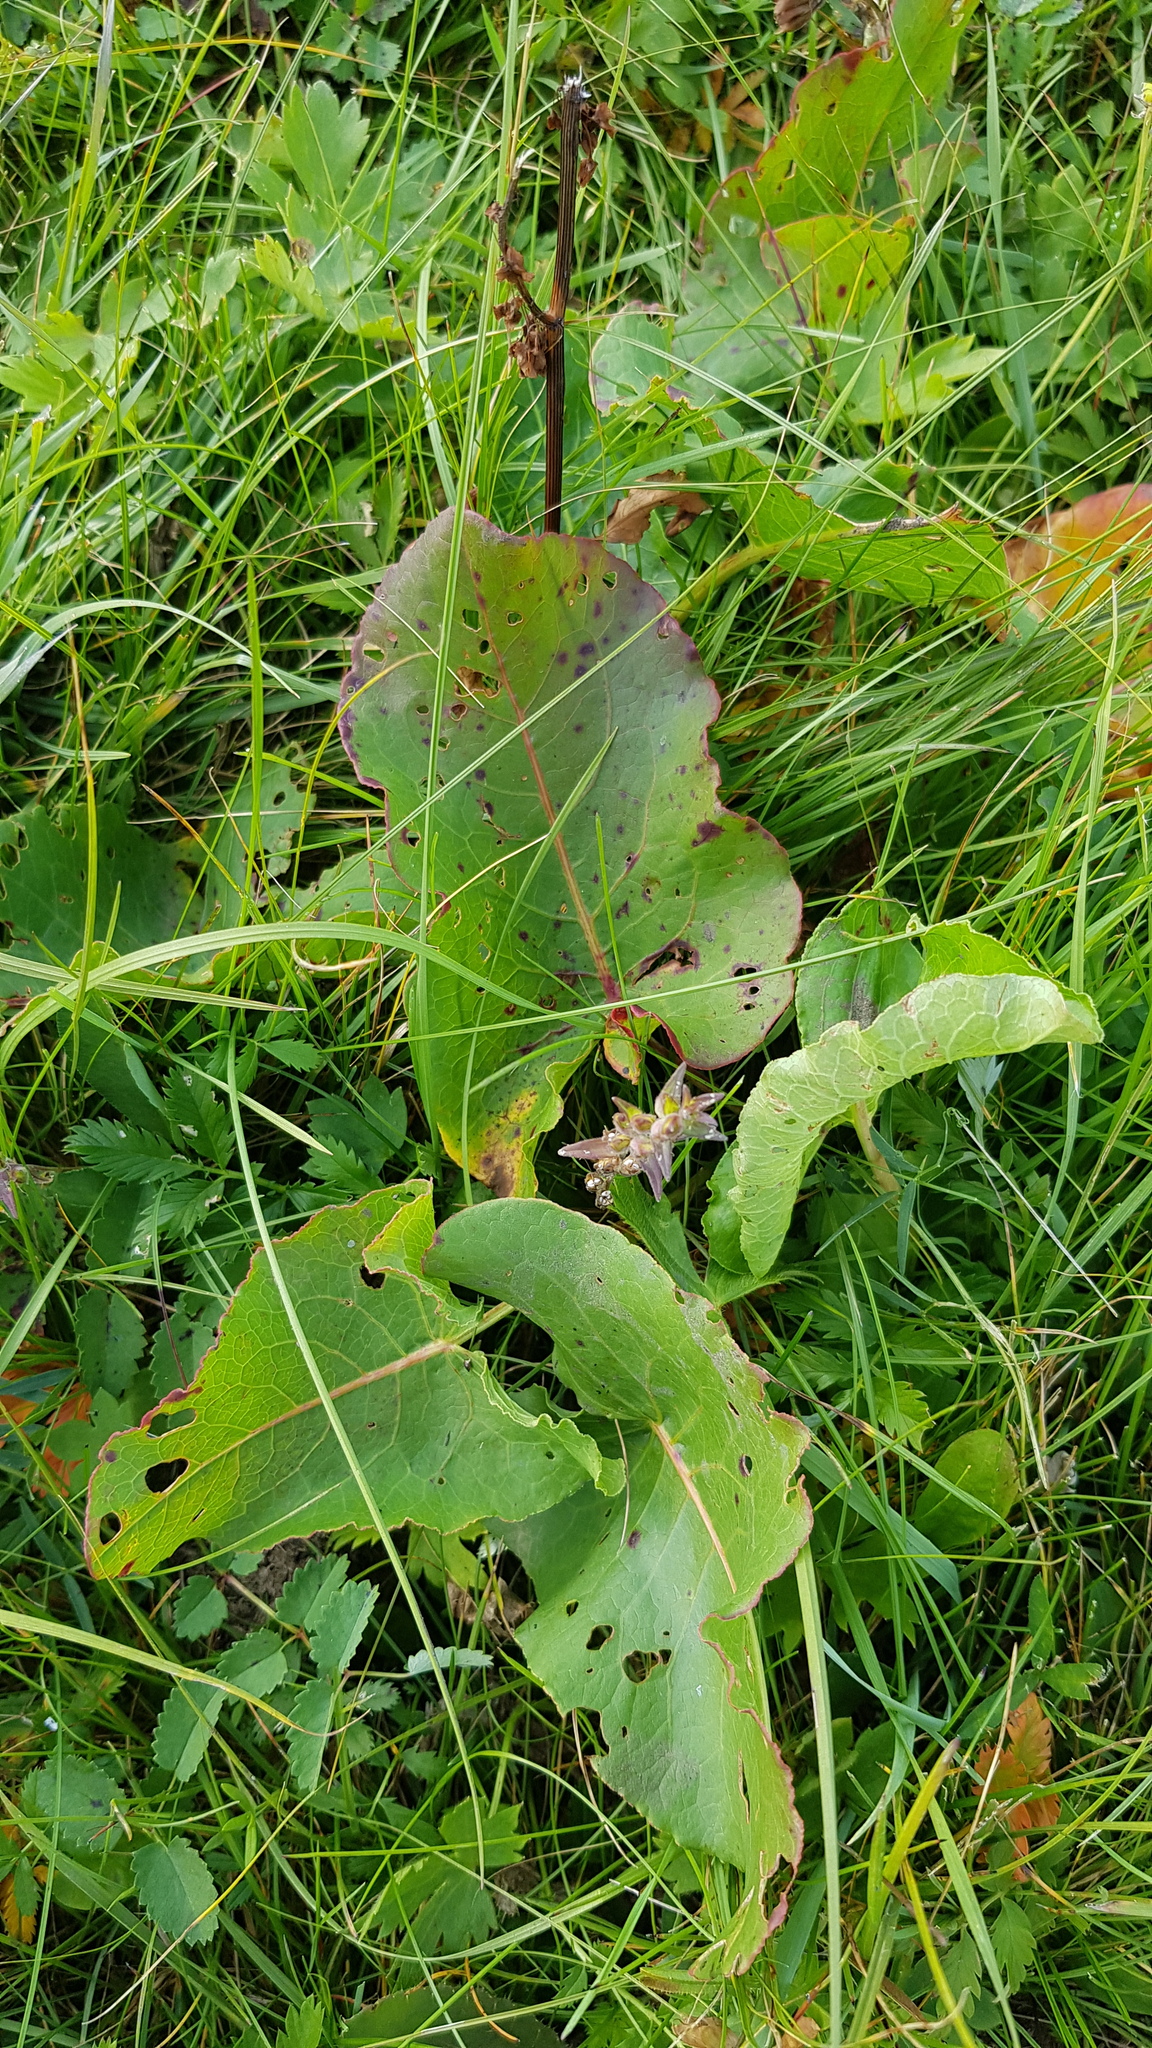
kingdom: Plantae
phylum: Tracheophyta
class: Magnoliopsida
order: Caryophyllales
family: Polygonaceae
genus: Rumex
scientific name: Rumex confertus
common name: Russian dock
